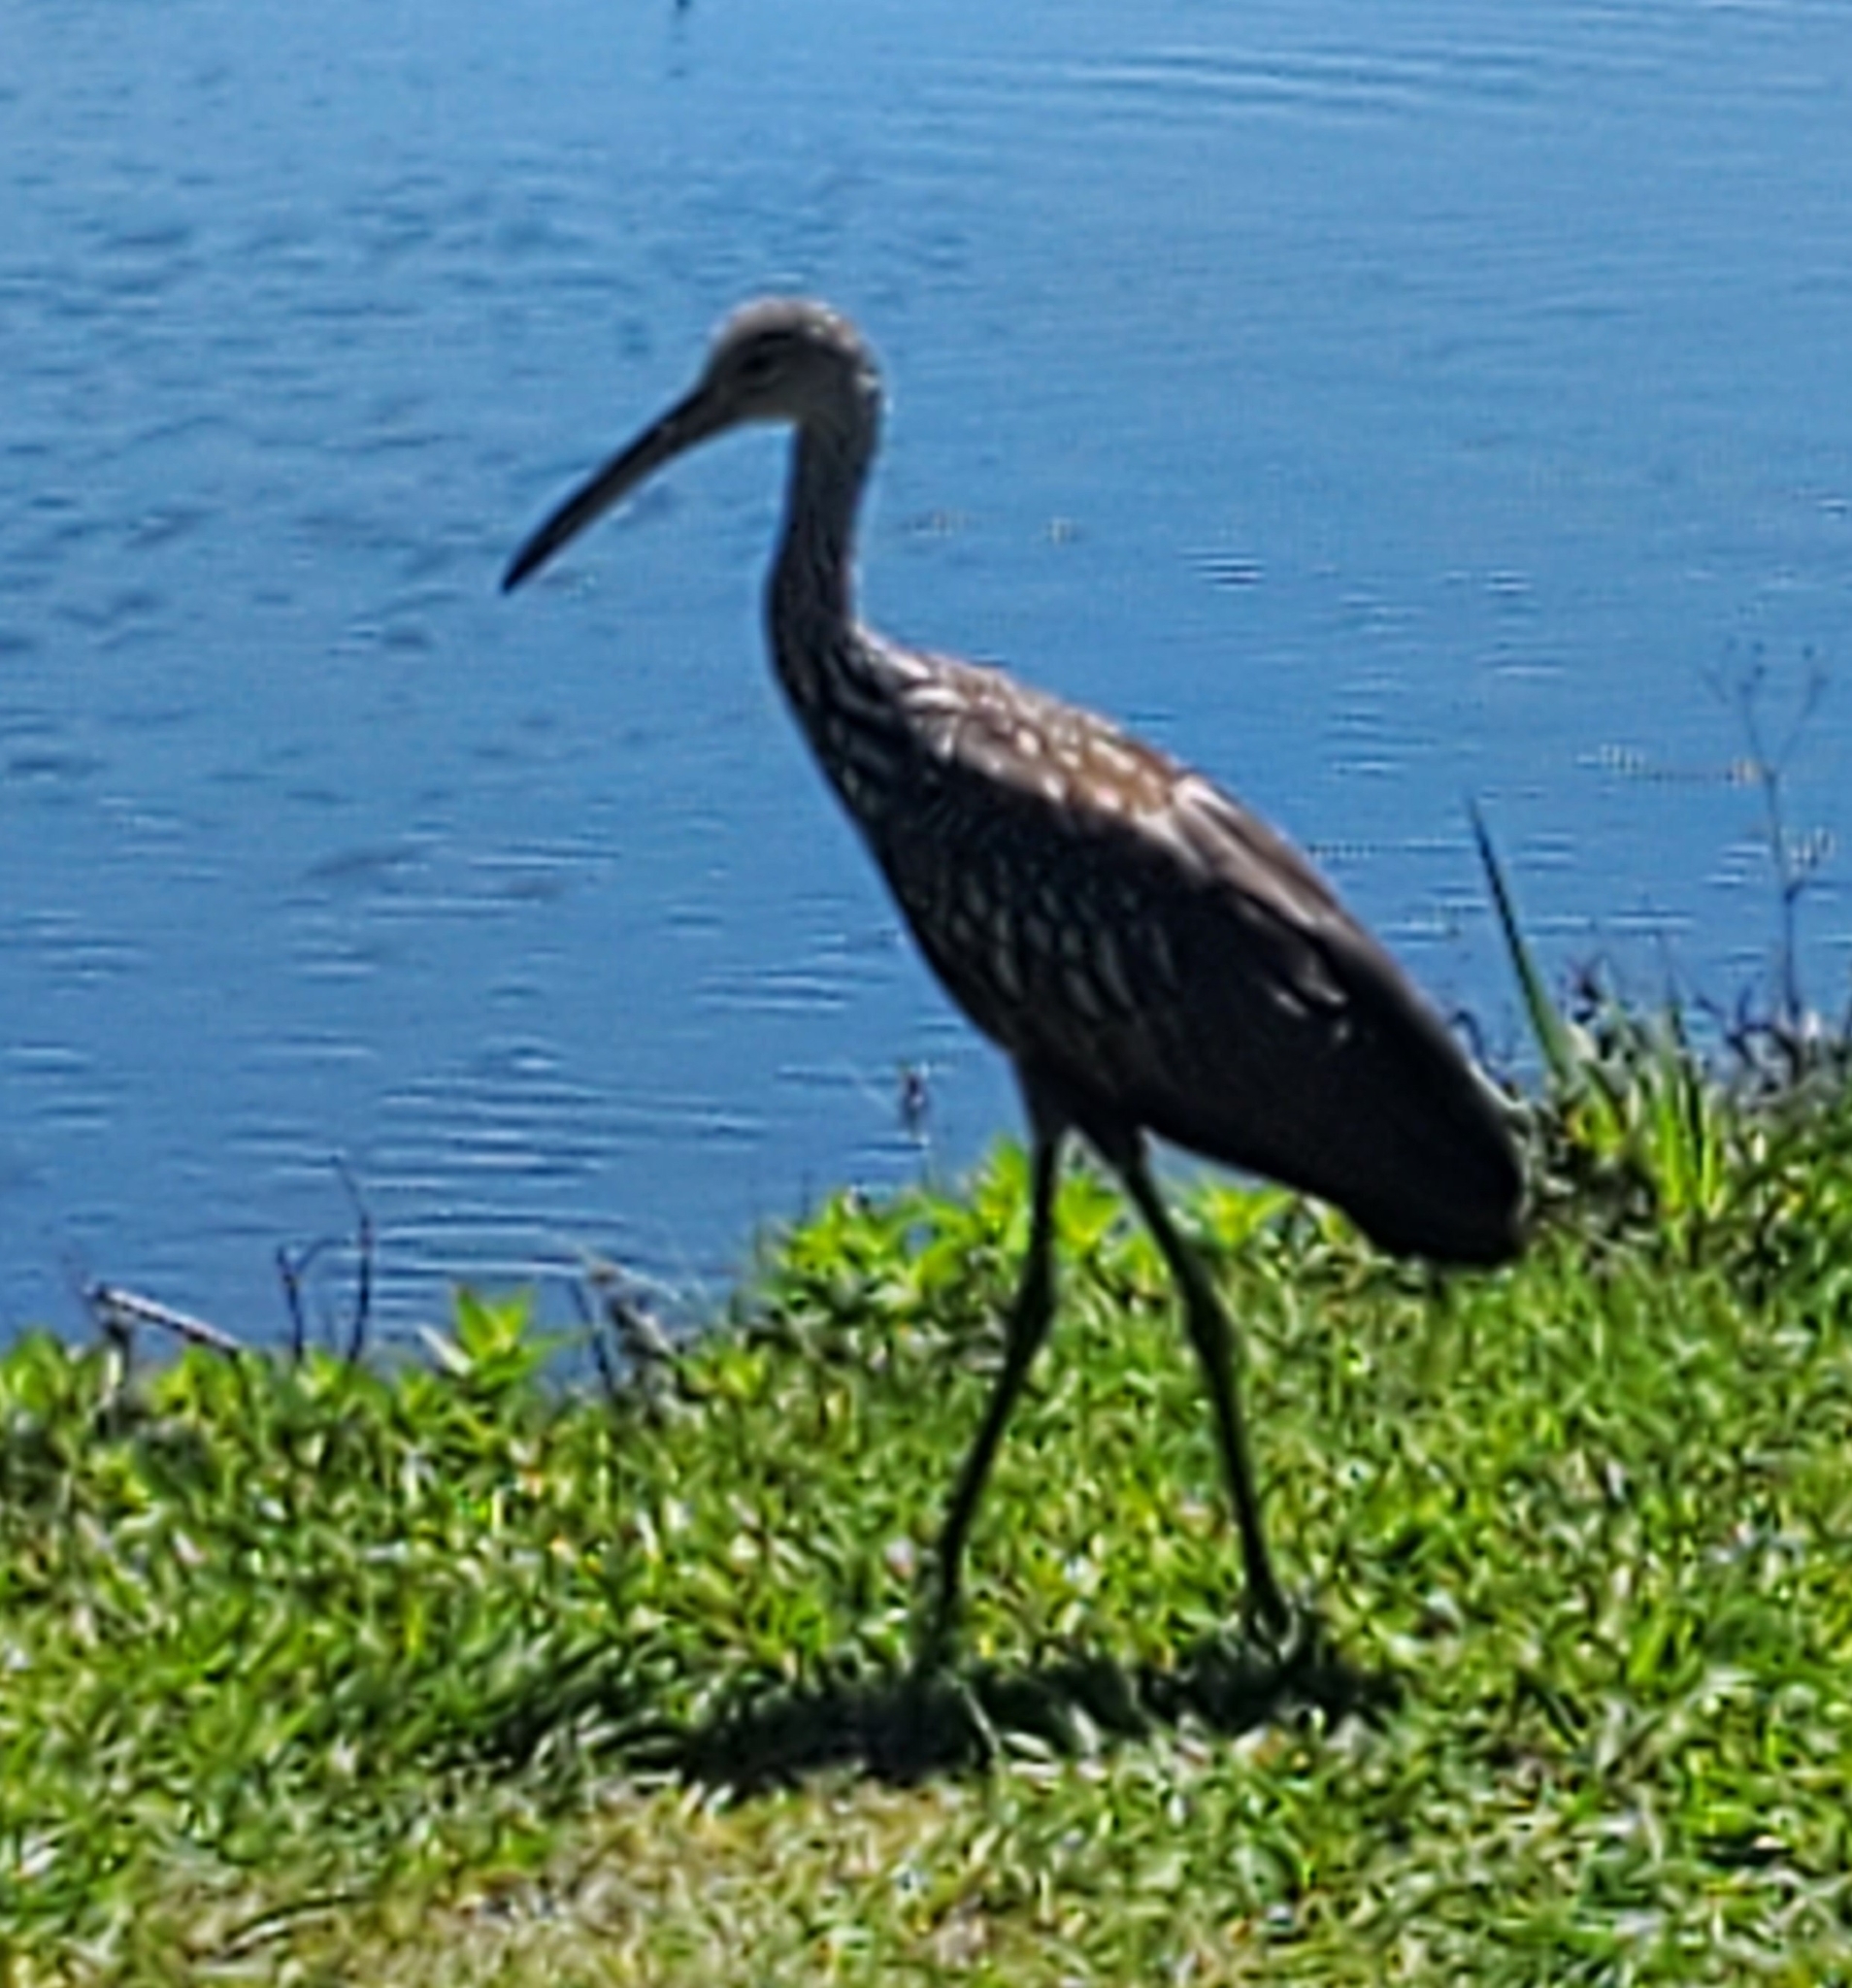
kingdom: Animalia
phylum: Chordata
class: Aves
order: Gruiformes
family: Aramidae
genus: Aramus
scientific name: Aramus guarauna
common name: Limpkin
